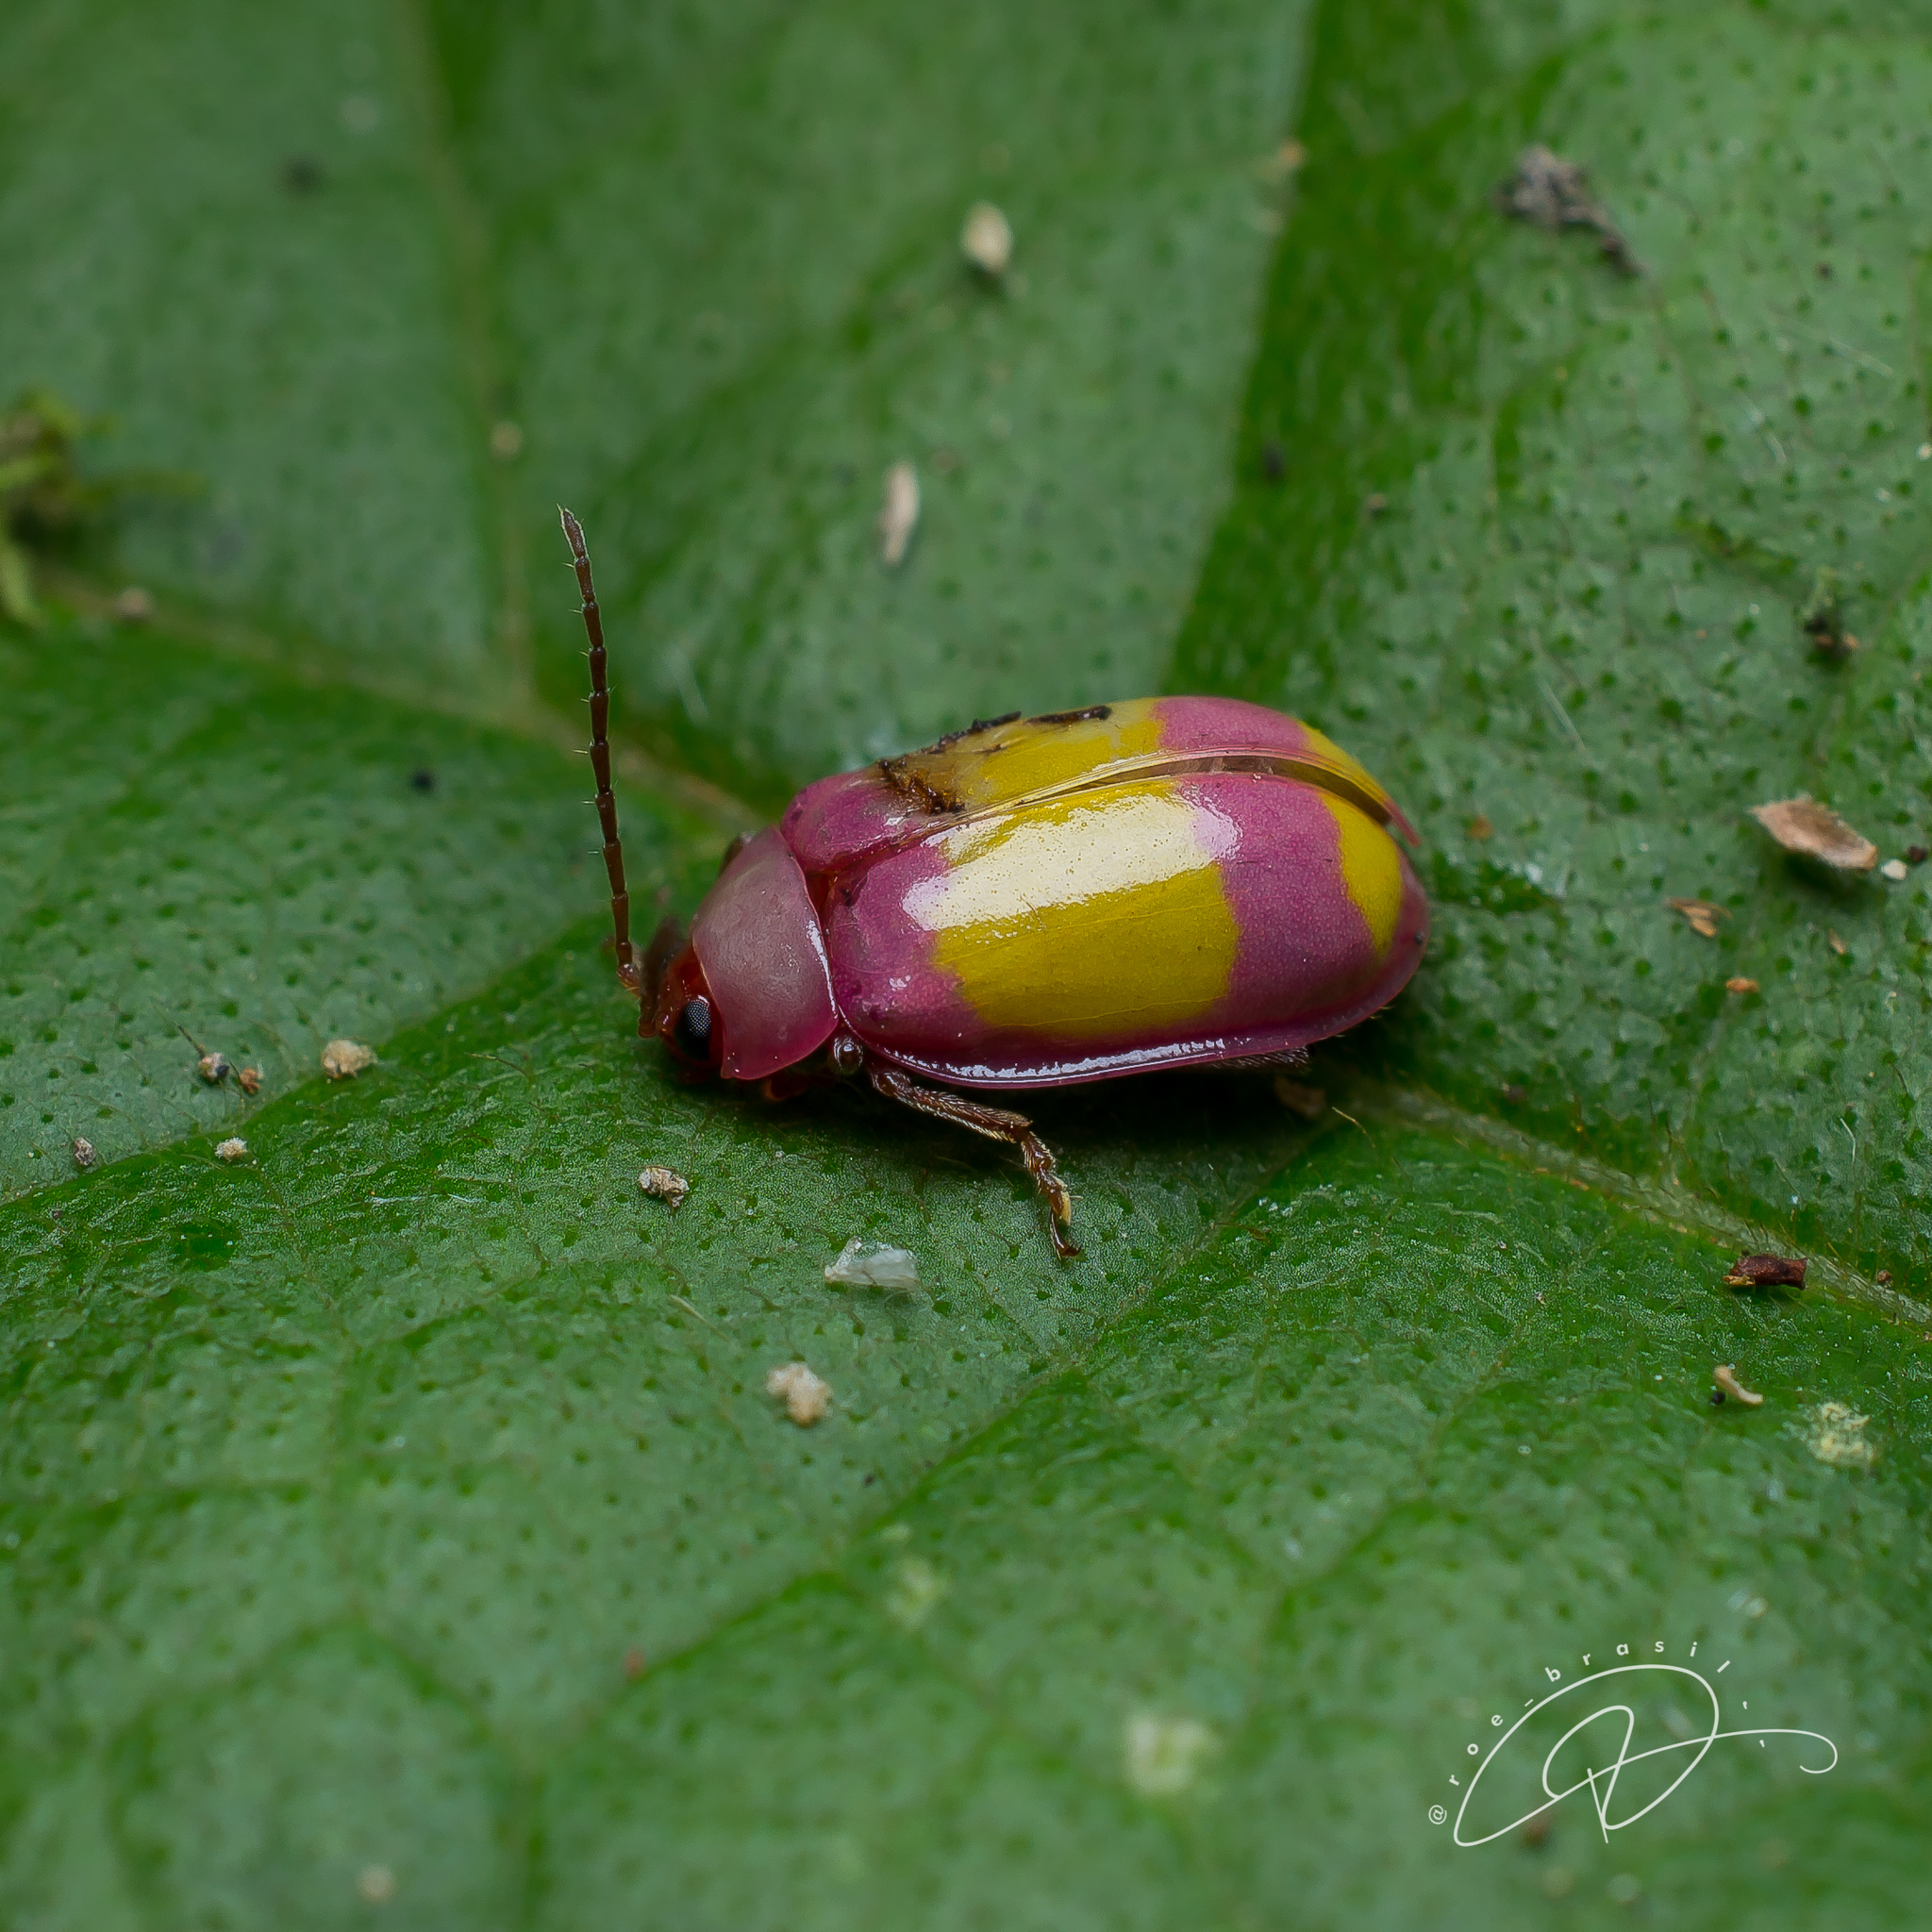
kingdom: Animalia
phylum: Arthropoda
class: Insecta
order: Coleoptera
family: Chrysomelidae
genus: Asphaera
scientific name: Asphaera
